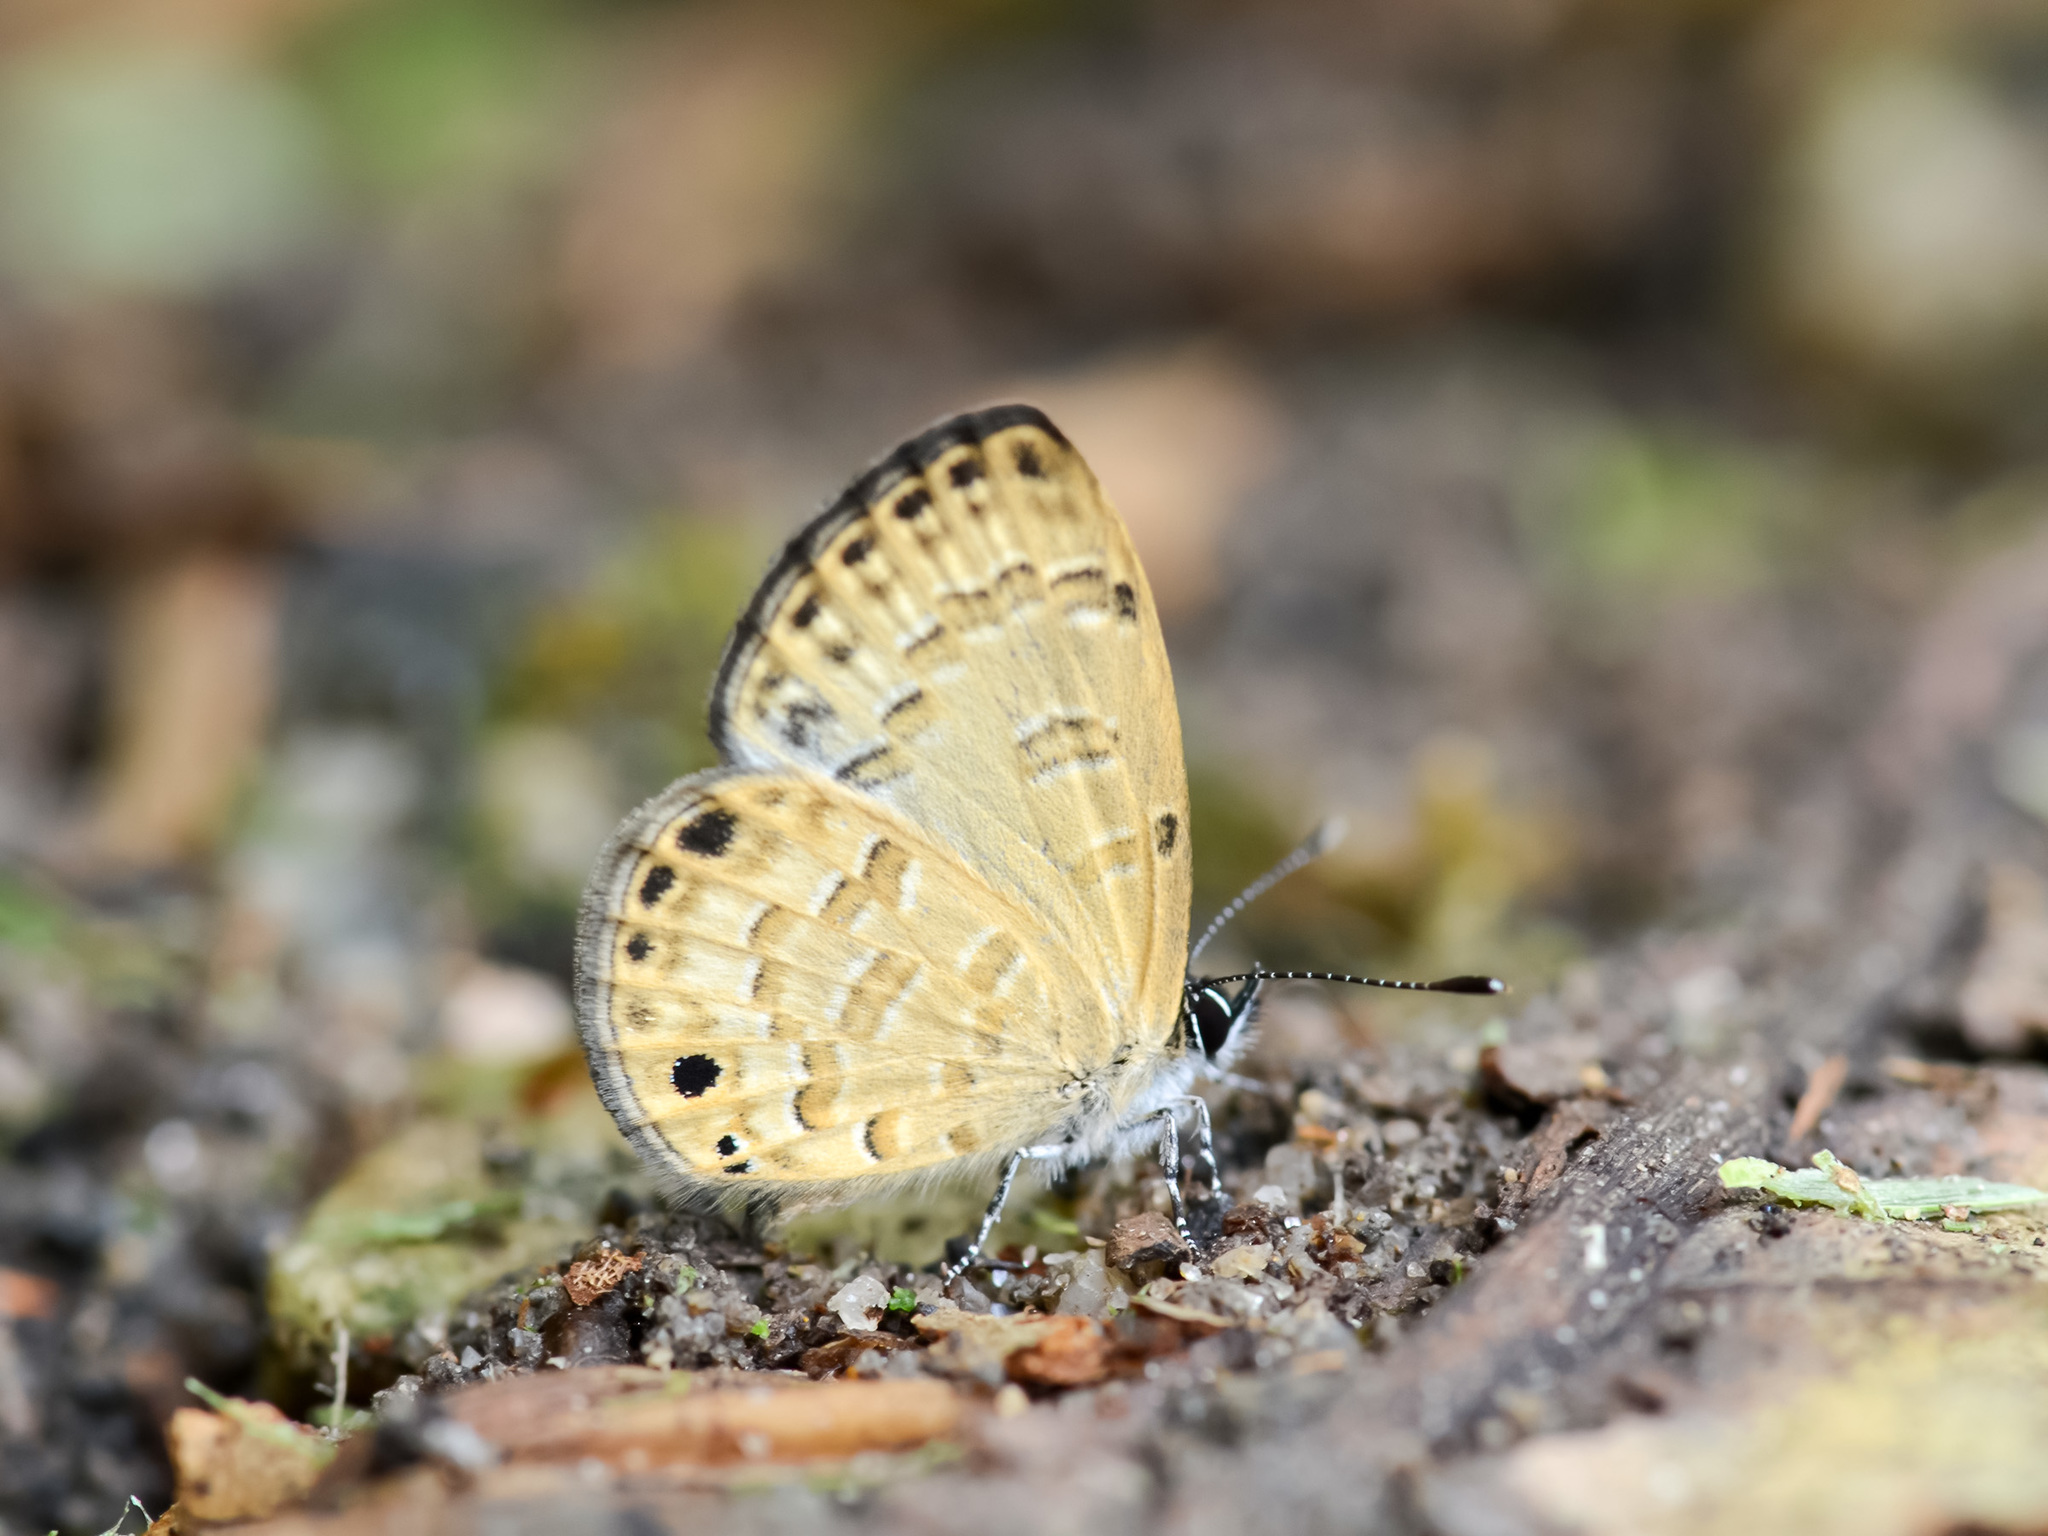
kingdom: Animalia
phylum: Arthropoda
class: Insecta
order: Lepidoptera
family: Lycaenidae
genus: Prosotas
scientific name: Prosotas lutea
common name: Brown lineblue
